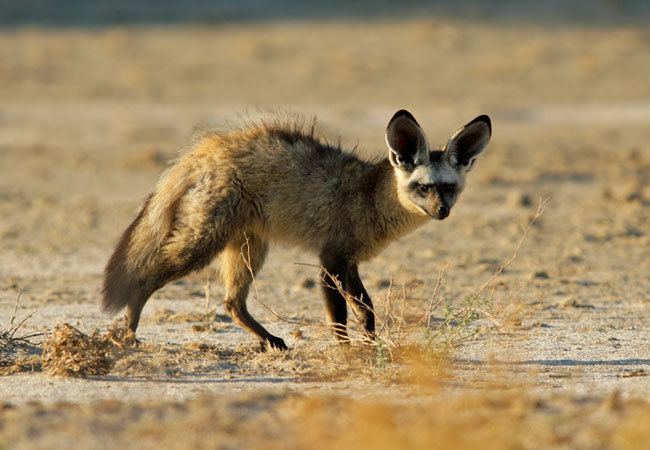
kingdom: Animalia
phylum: Chordata
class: Mammalia
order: Carnivora
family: Canidae
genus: Otocyon
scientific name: Otocyon megalotis
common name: Bat-eared fox
